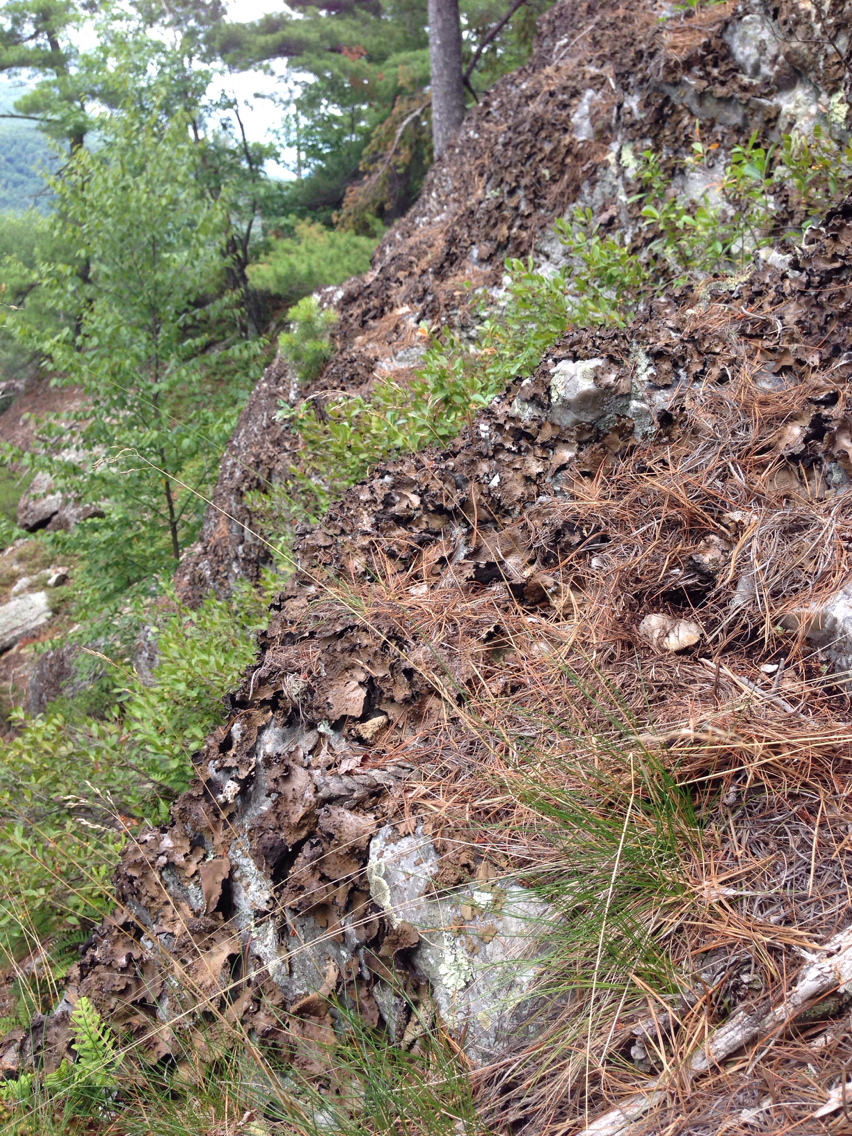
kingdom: Fungi
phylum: Ascomycota
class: Lecanoromycetes
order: Umbilicariales
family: Umbilicariaceae
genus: Umbilicaria
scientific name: Umbilicaria muhlenbergii
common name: Lesser rocktripe
